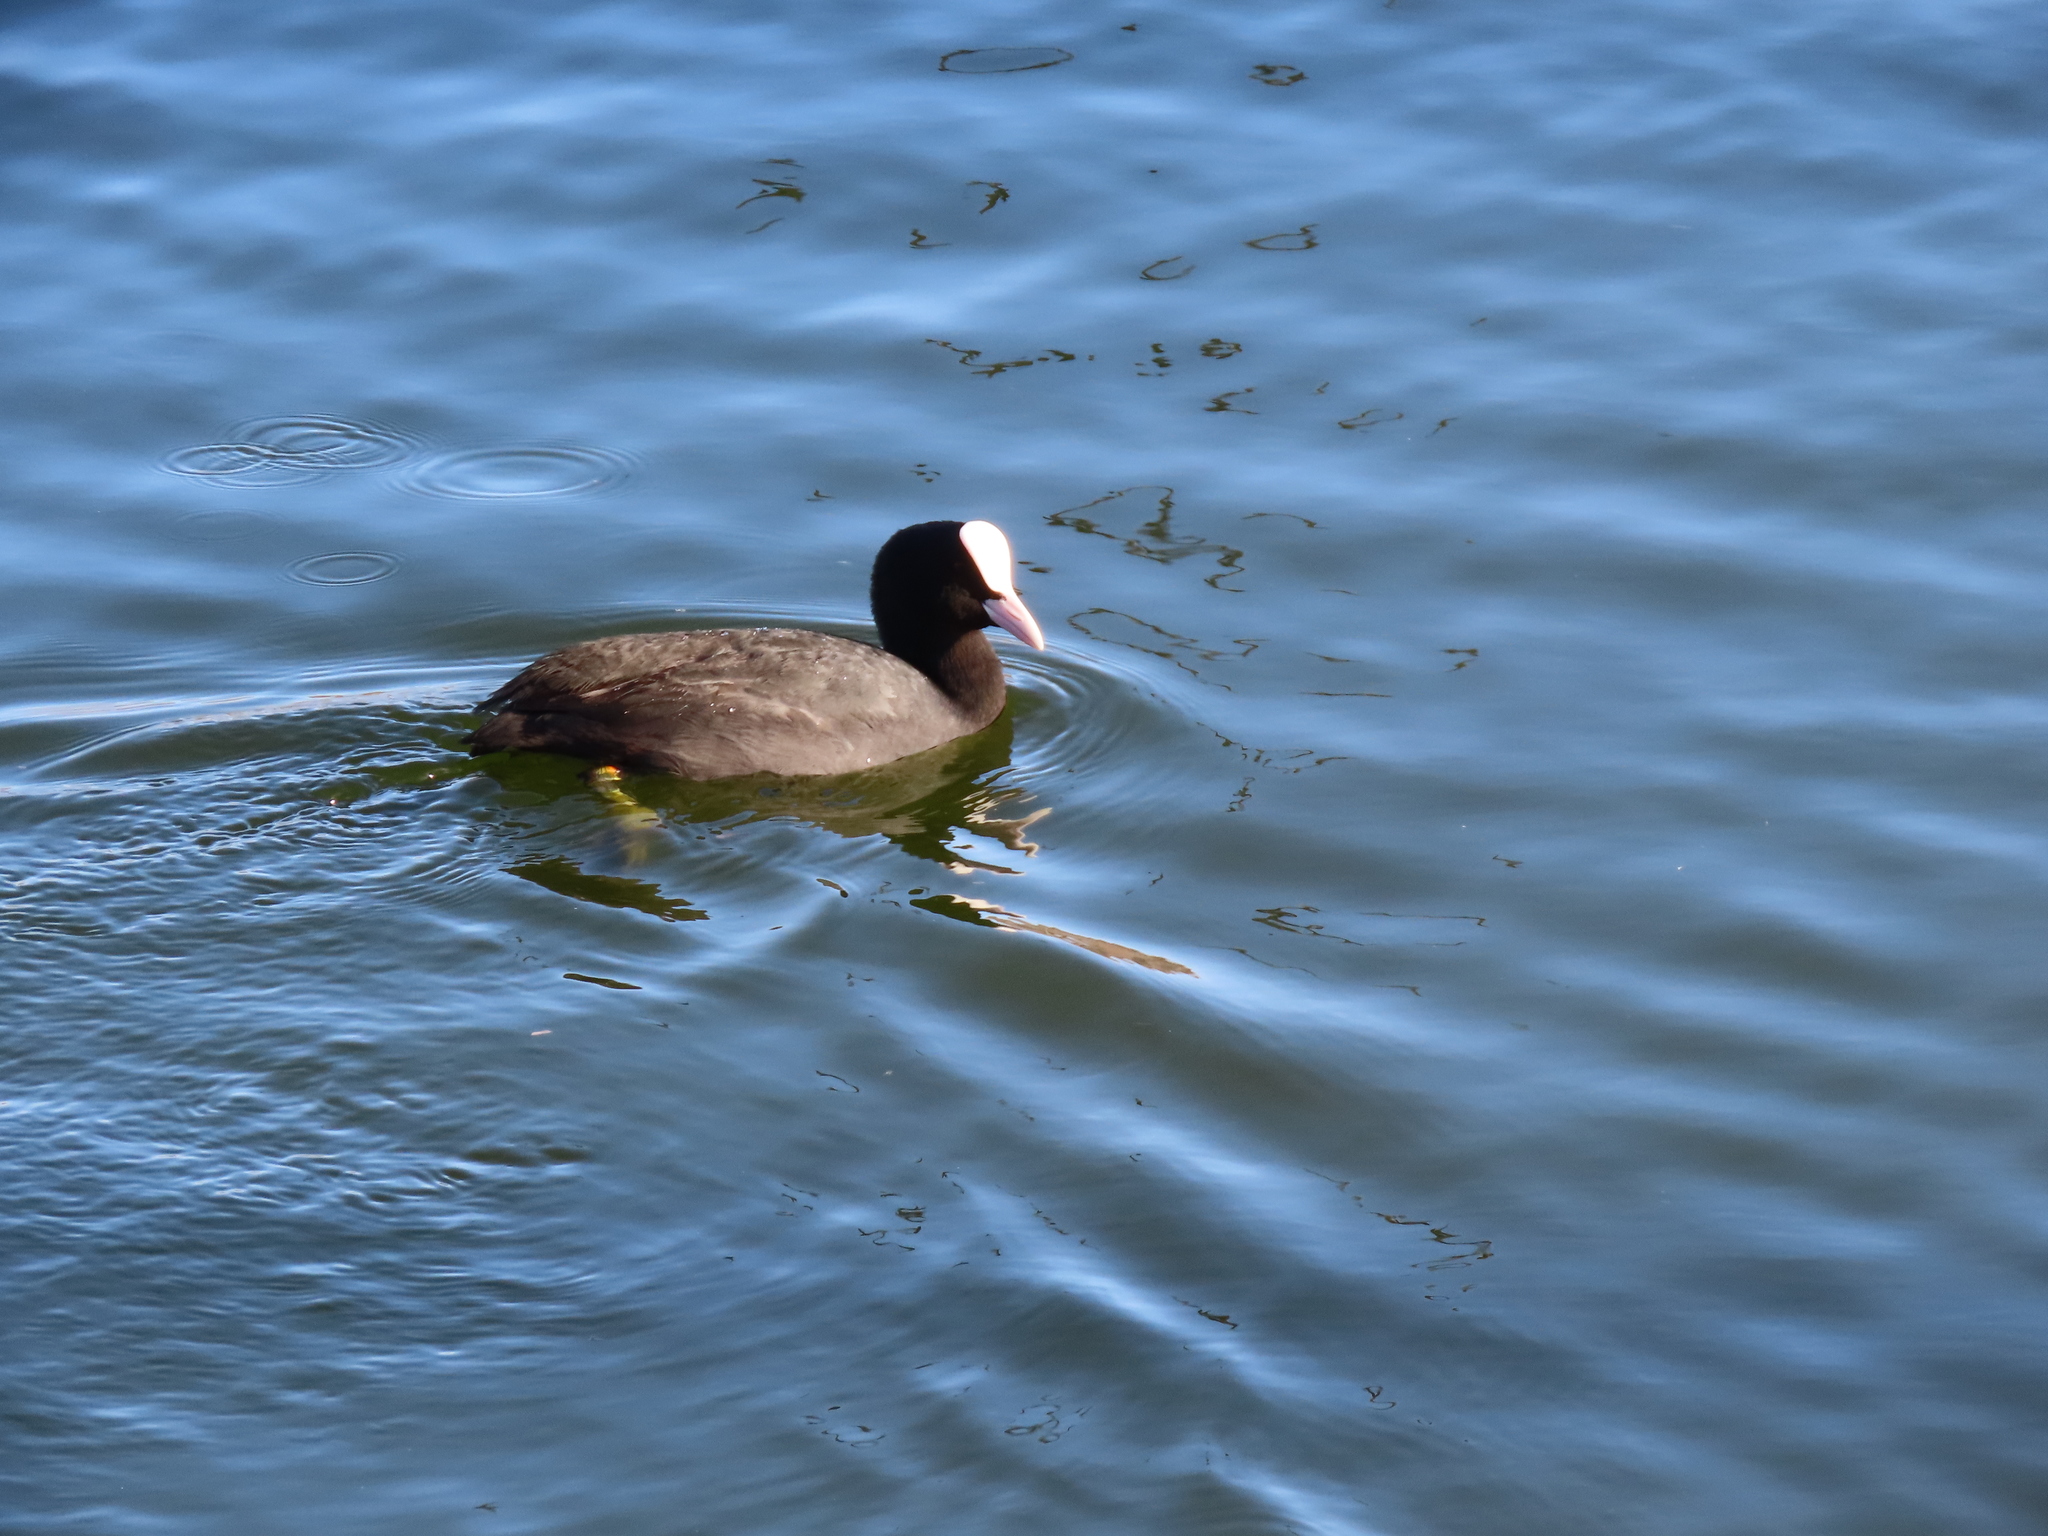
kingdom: Animalia
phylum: Chordata
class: Aves
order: Gruiformes
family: Rallidae
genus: Fulica
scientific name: Fulica atra
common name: Eurasian coot
